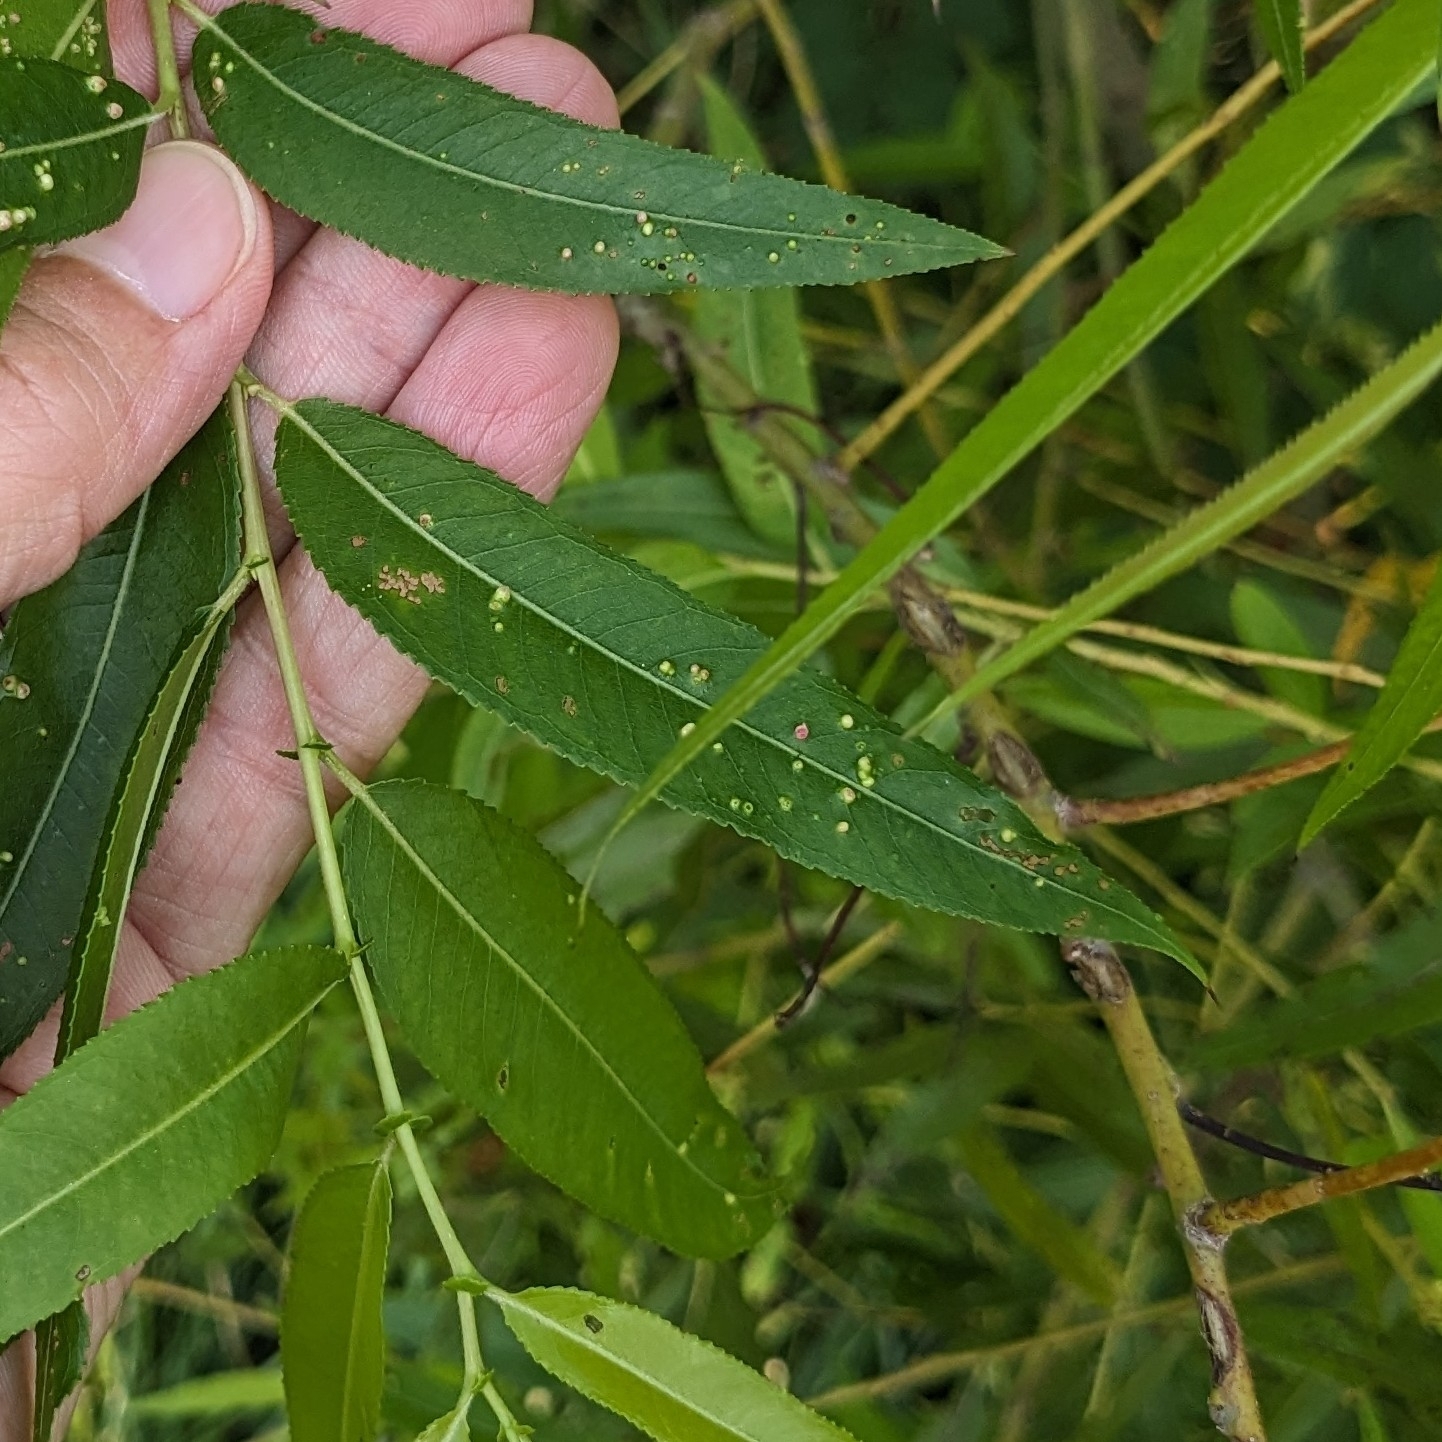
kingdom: Animalia
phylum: Arthropoda
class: Arachnida
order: Trombidiformes
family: Eriophyidae
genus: Aculus
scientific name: Aculus tetanothrix
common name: Willow bead gall mite
